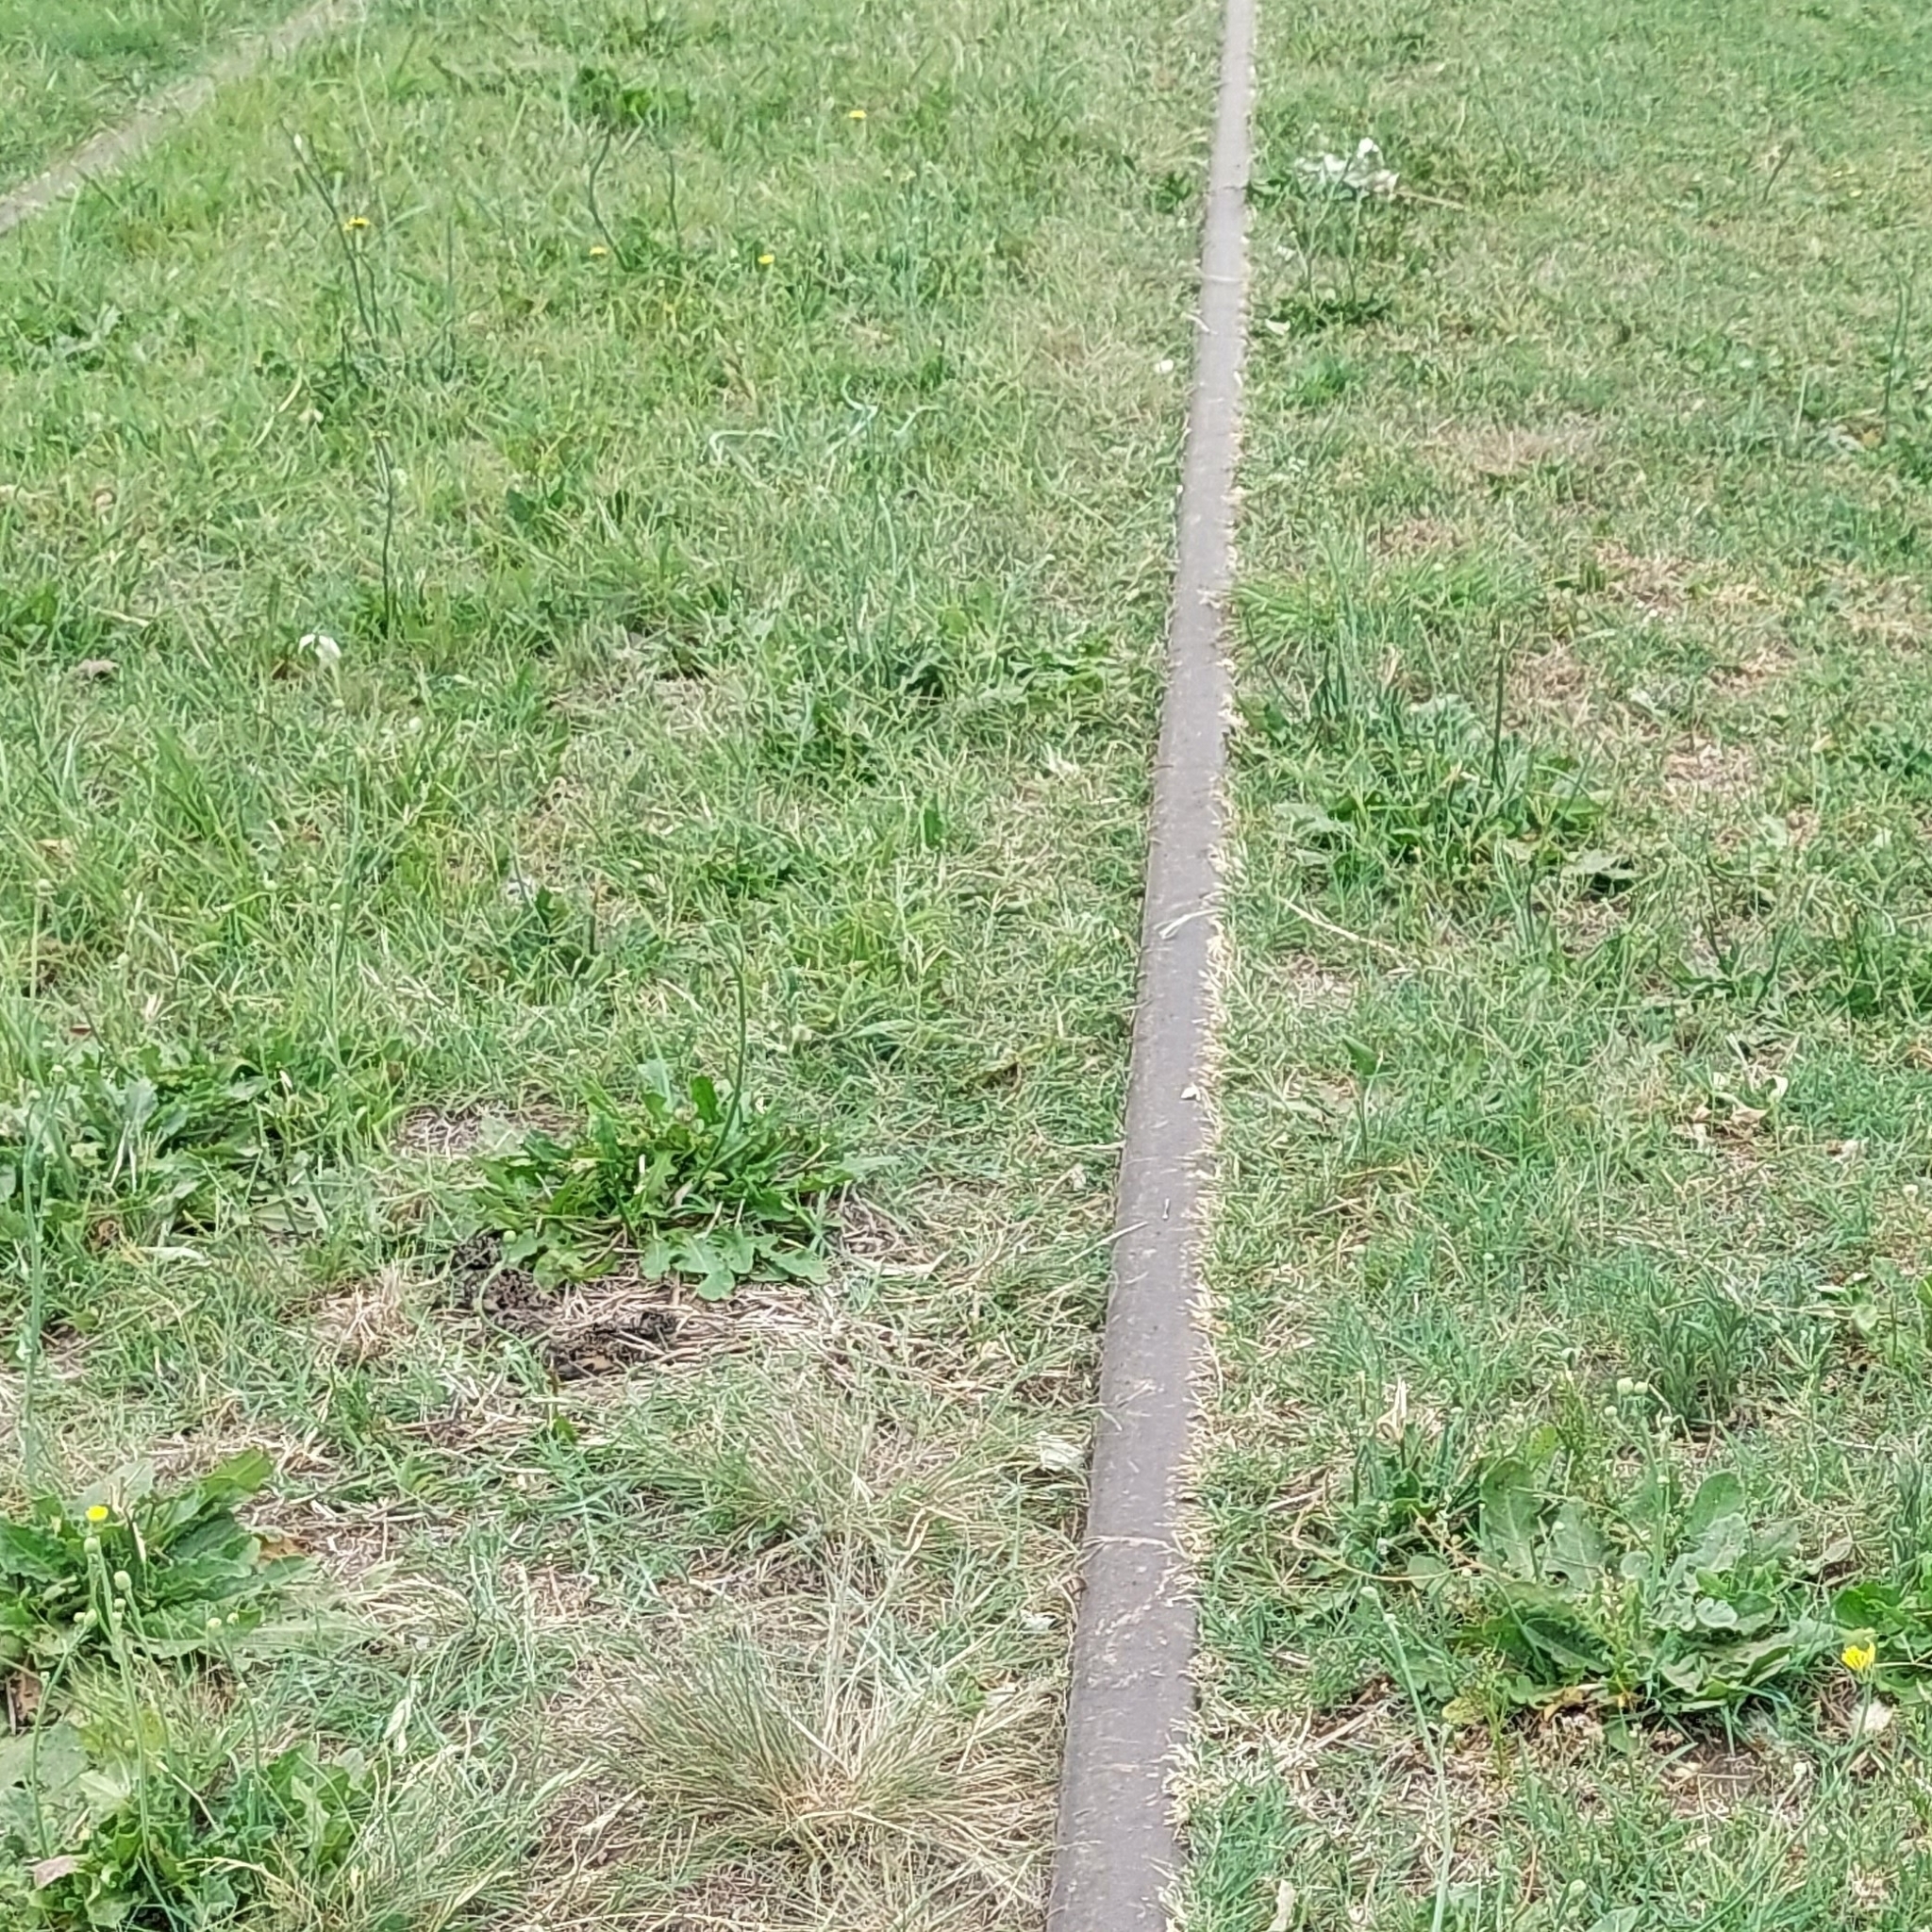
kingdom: Animalia
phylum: Chordata
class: Aves
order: Charadriiformes
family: Charadriidae
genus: Vanellus
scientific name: Vanellus chilensis
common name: Southern lapwing
